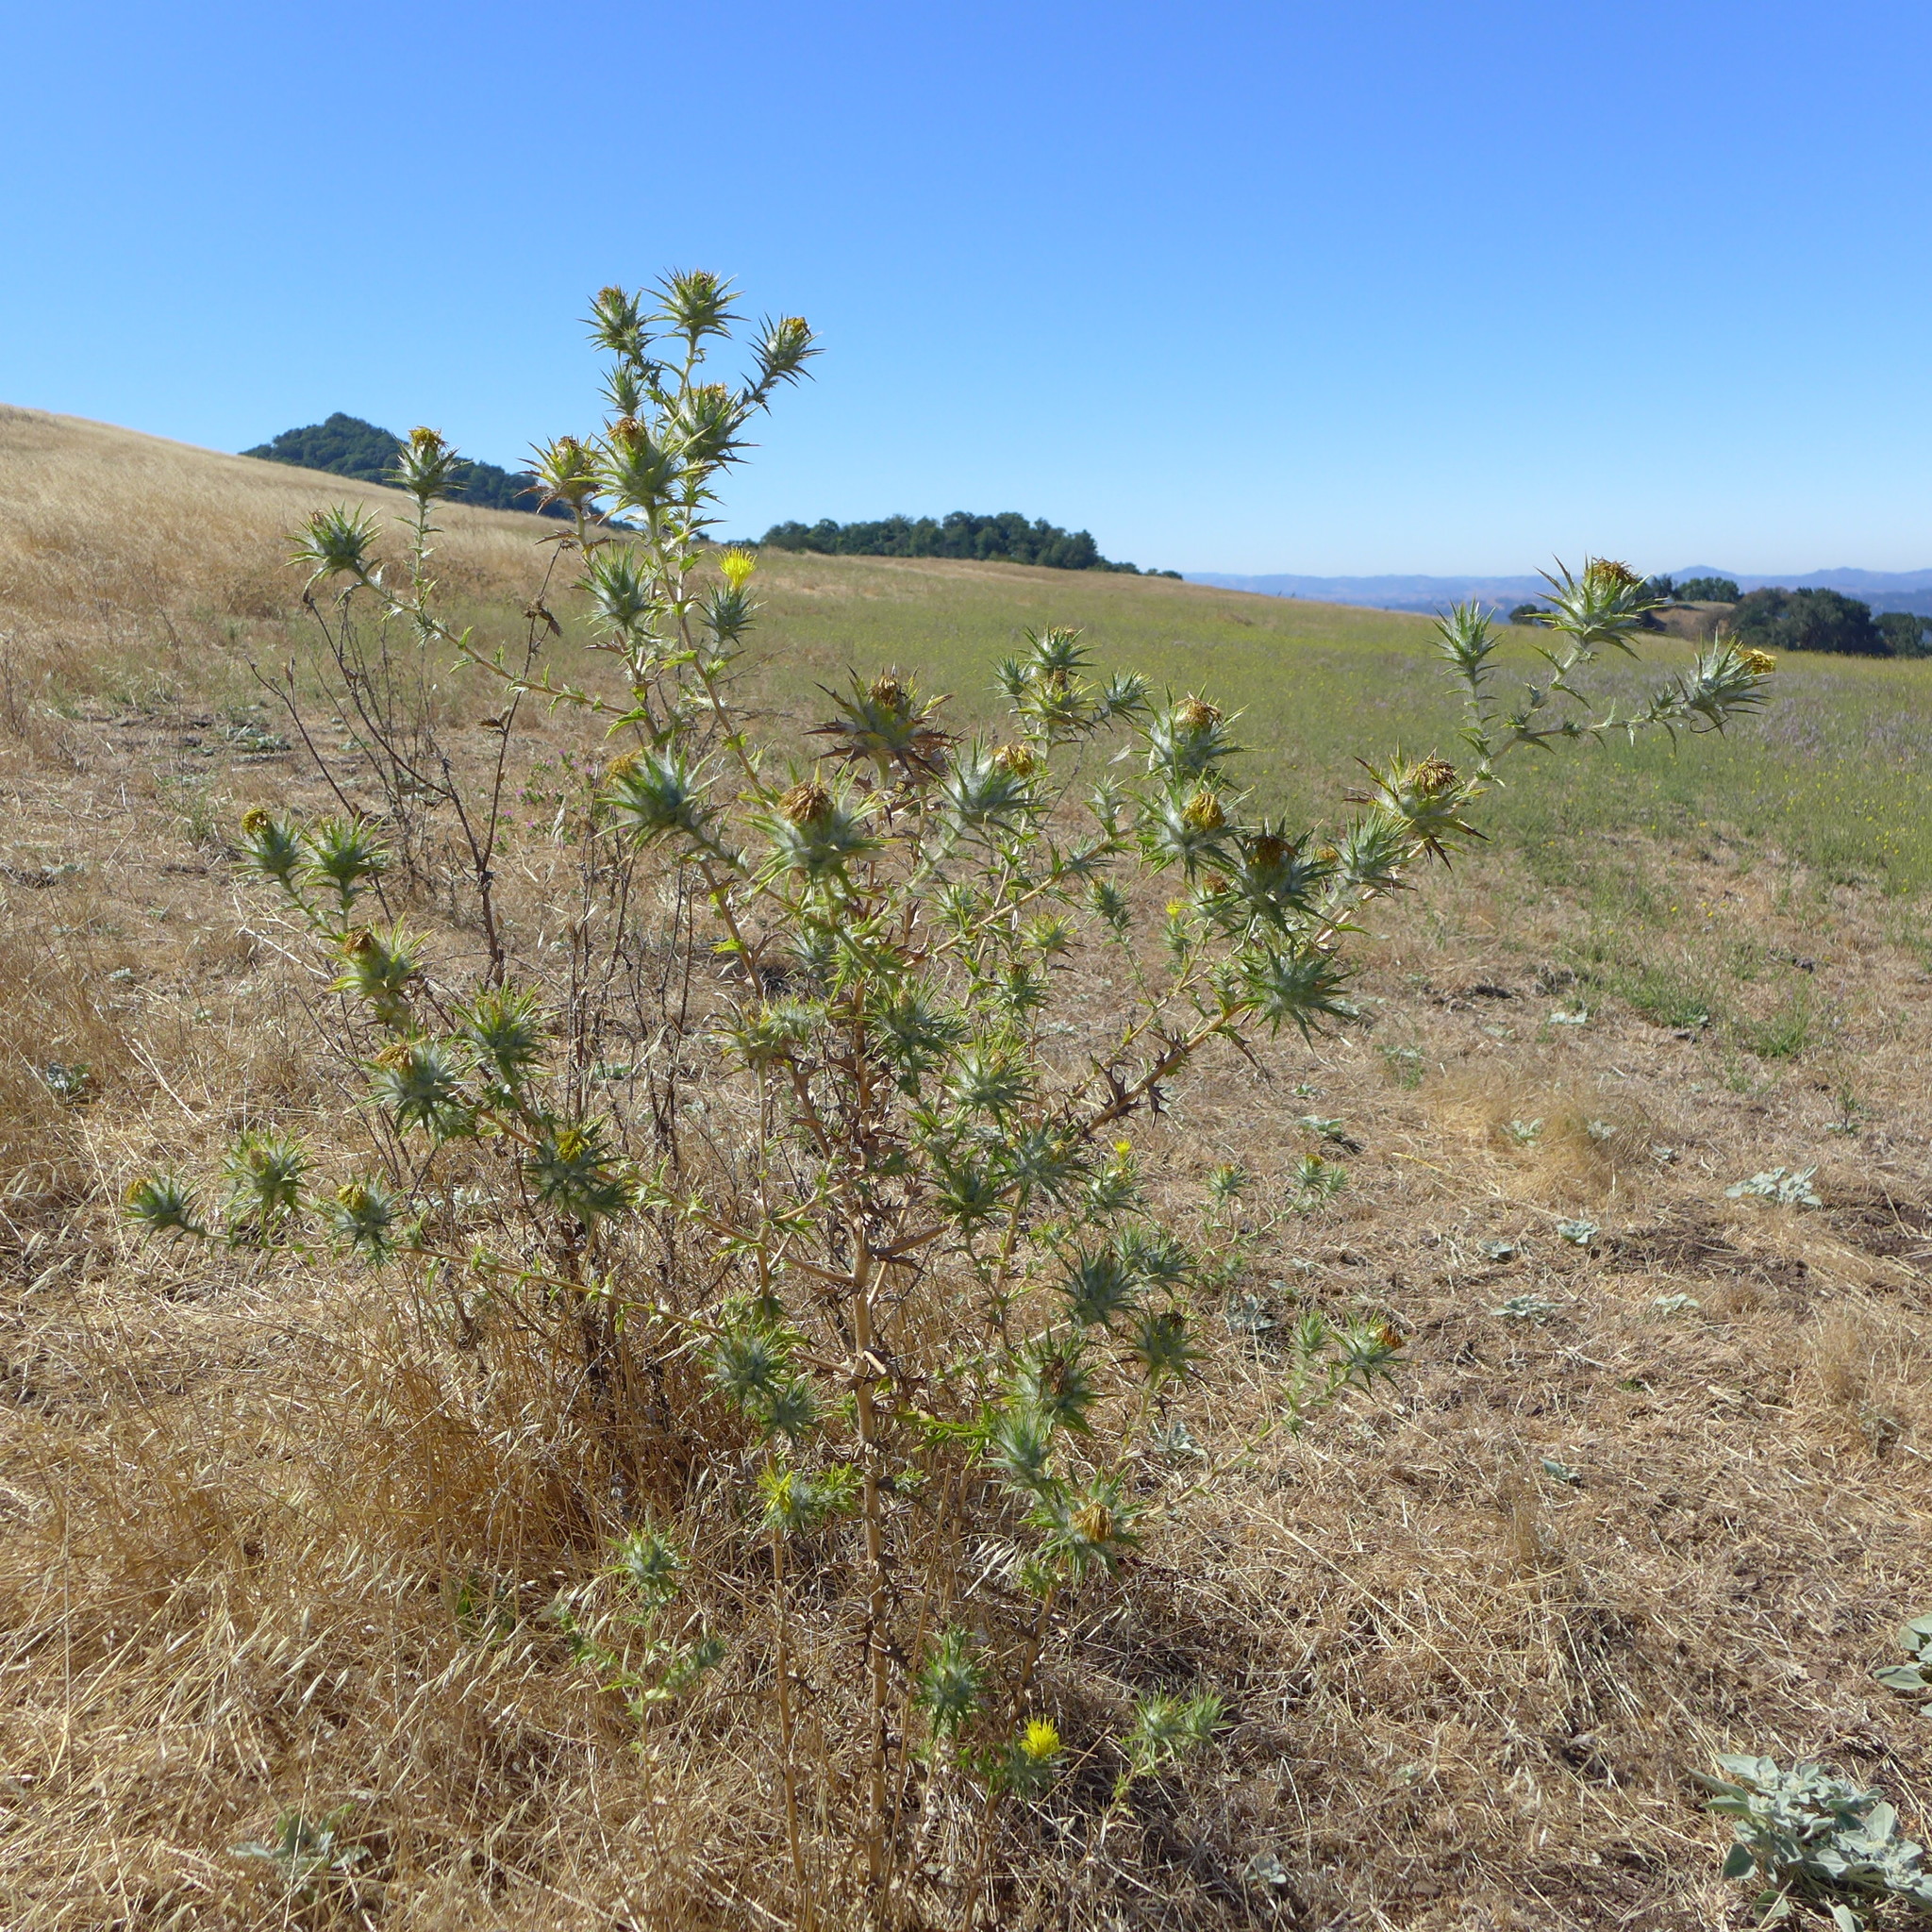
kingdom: Plantae
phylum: Tracheophyta
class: Magnoliopsida
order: Asterales
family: Asteraceae
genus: Carthamus
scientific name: Carthamus lanatus
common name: Downy safflower
